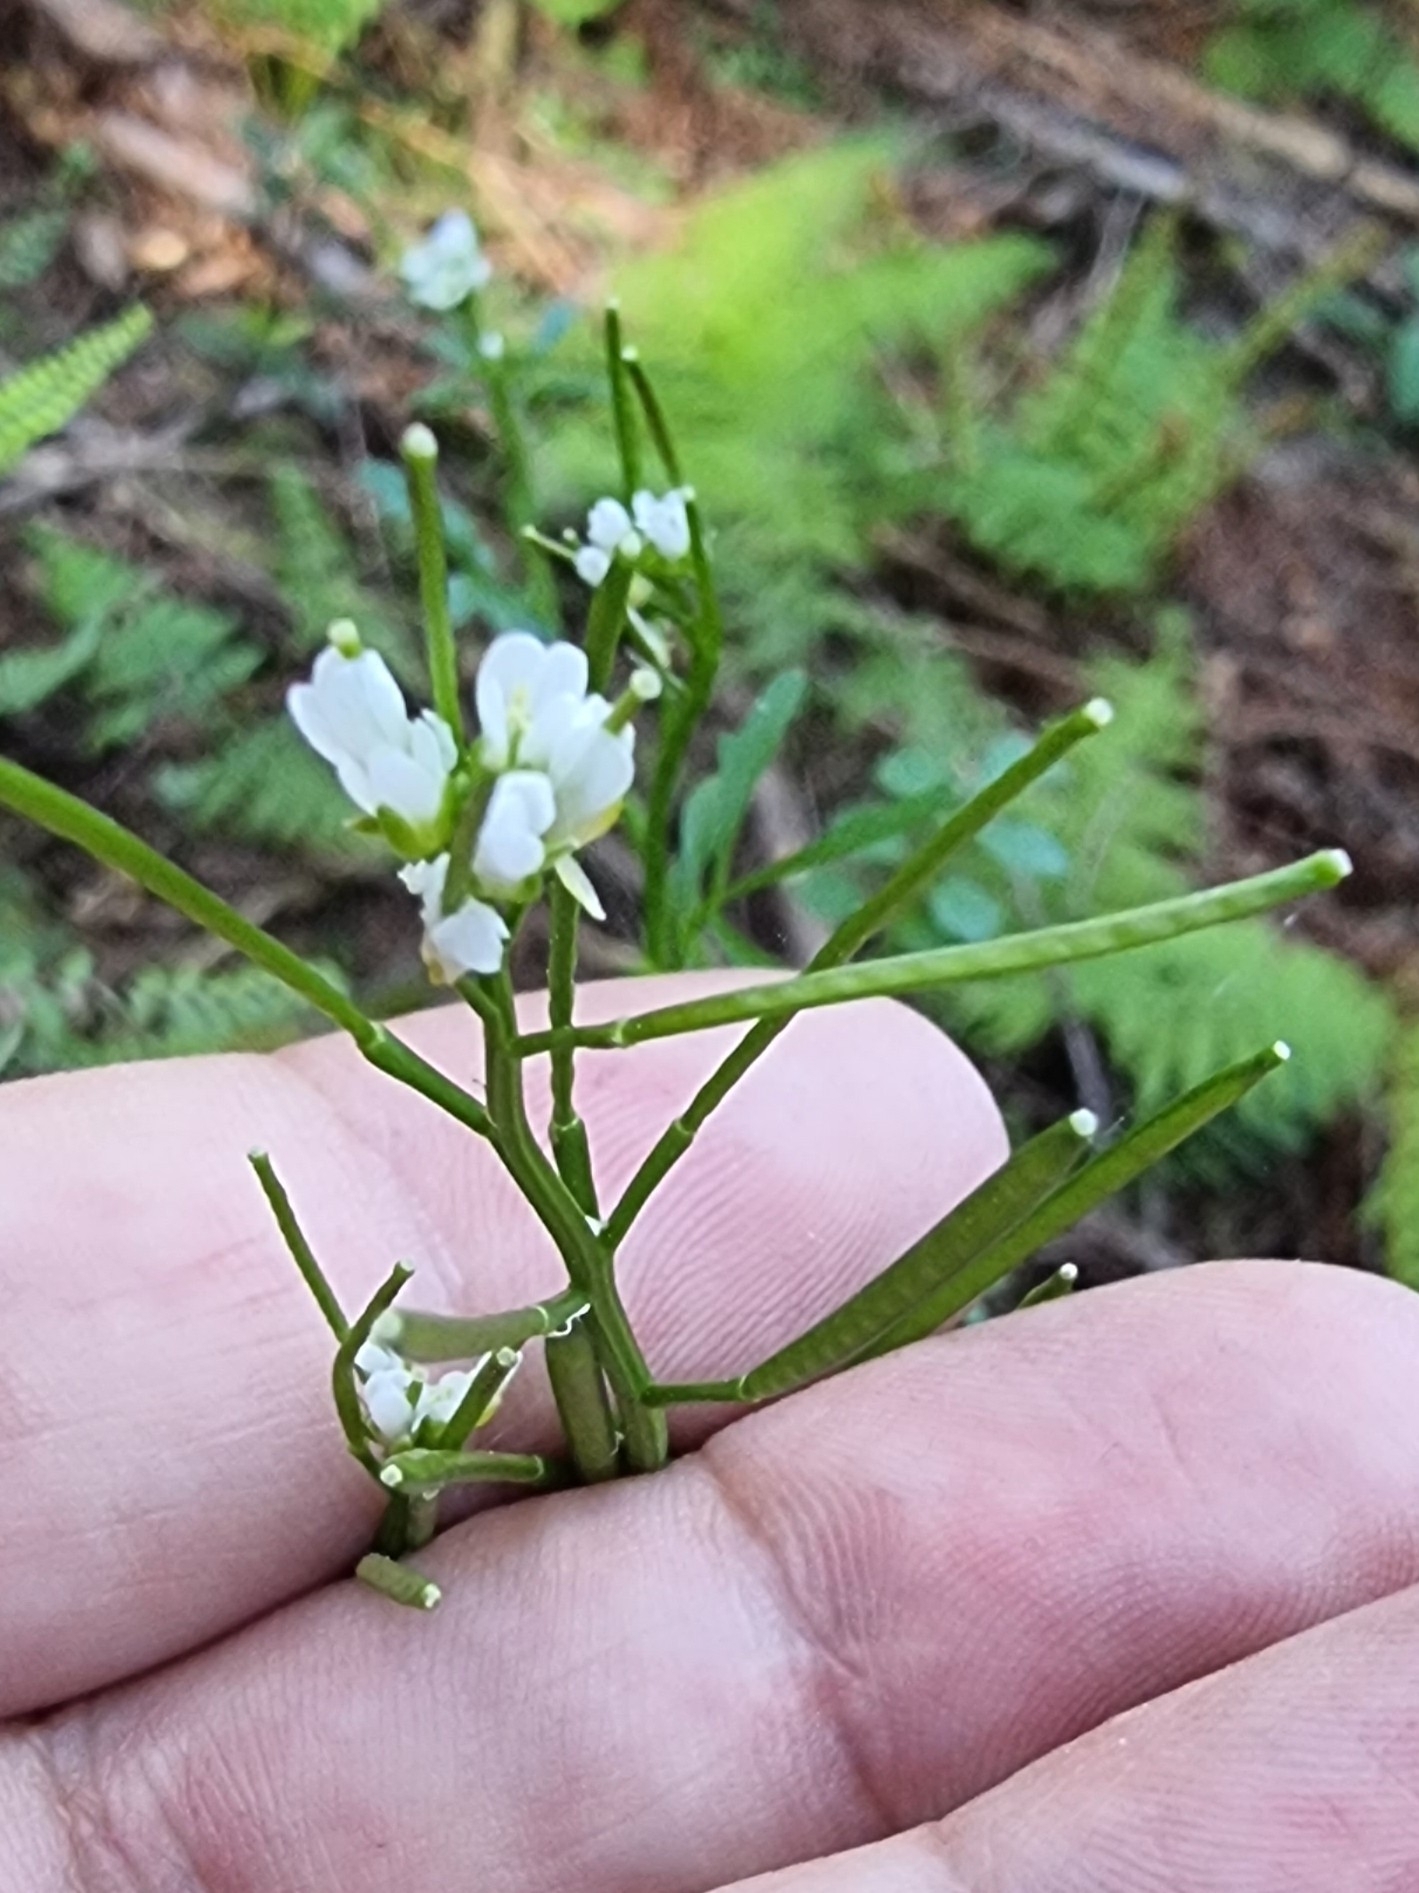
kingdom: Plantae
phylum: Tracheophyta
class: Magnoliopsida
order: Brassicales
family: Brassicaceae
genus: Cardamine
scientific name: Cardamine hirsuta
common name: Hairy bittercress
